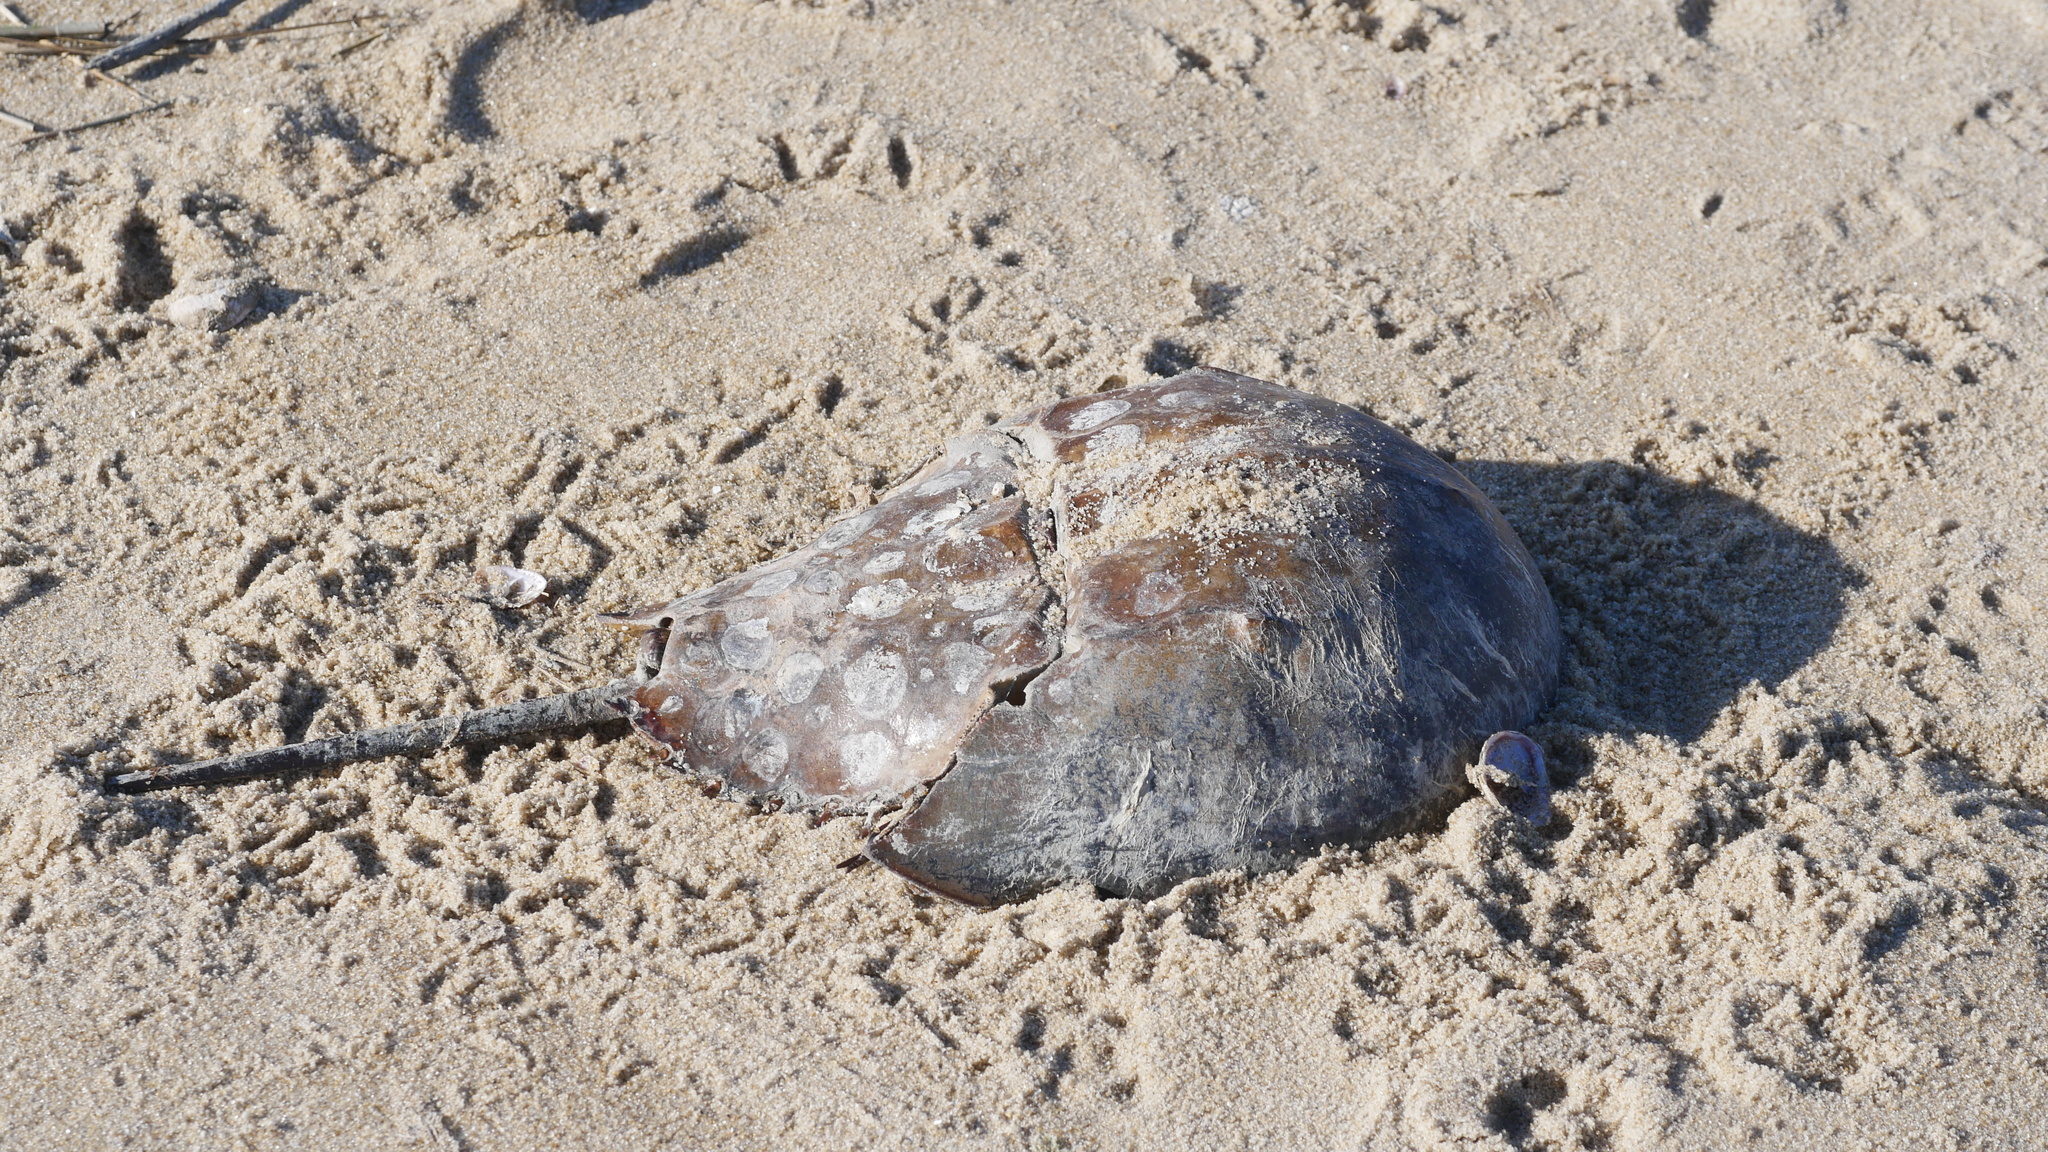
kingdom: Animalia
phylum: Arthropoda
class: Merostomata
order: Xiphosurida
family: Limulidae
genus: Limulus
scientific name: Limulus polyphemus
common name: Horseshoe crab
